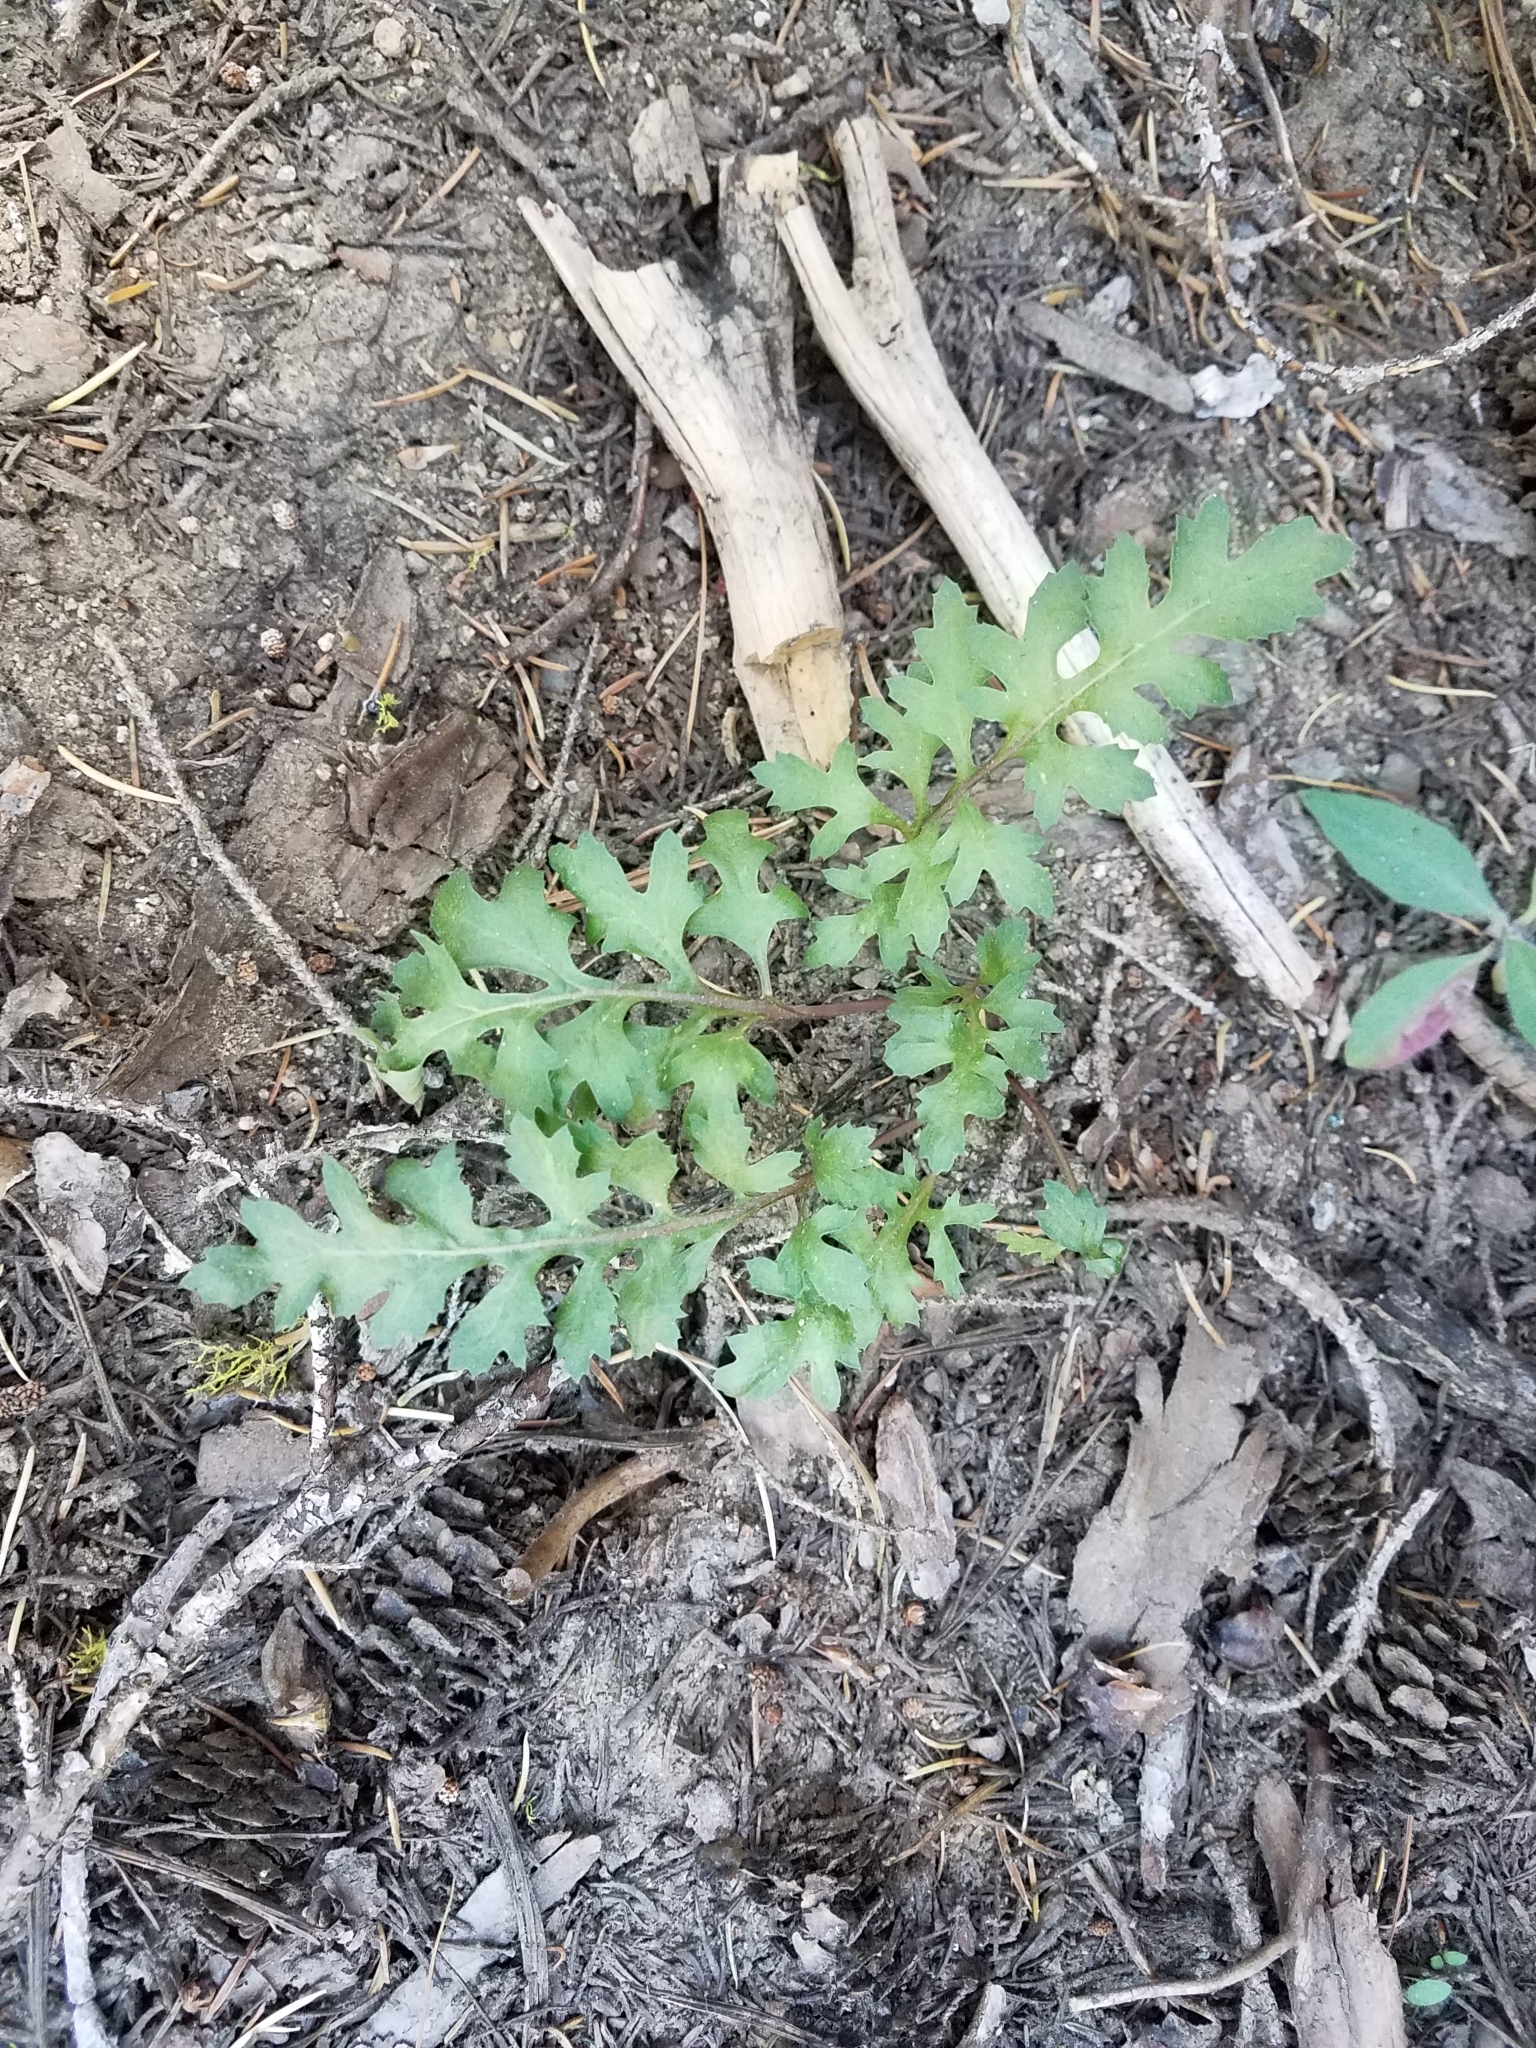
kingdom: Plantae
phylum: Tracheophyta
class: Magnoliopsida
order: Lamiales
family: Orobanchaceae
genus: Pedicularis
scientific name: Pedicularis semibarbata
